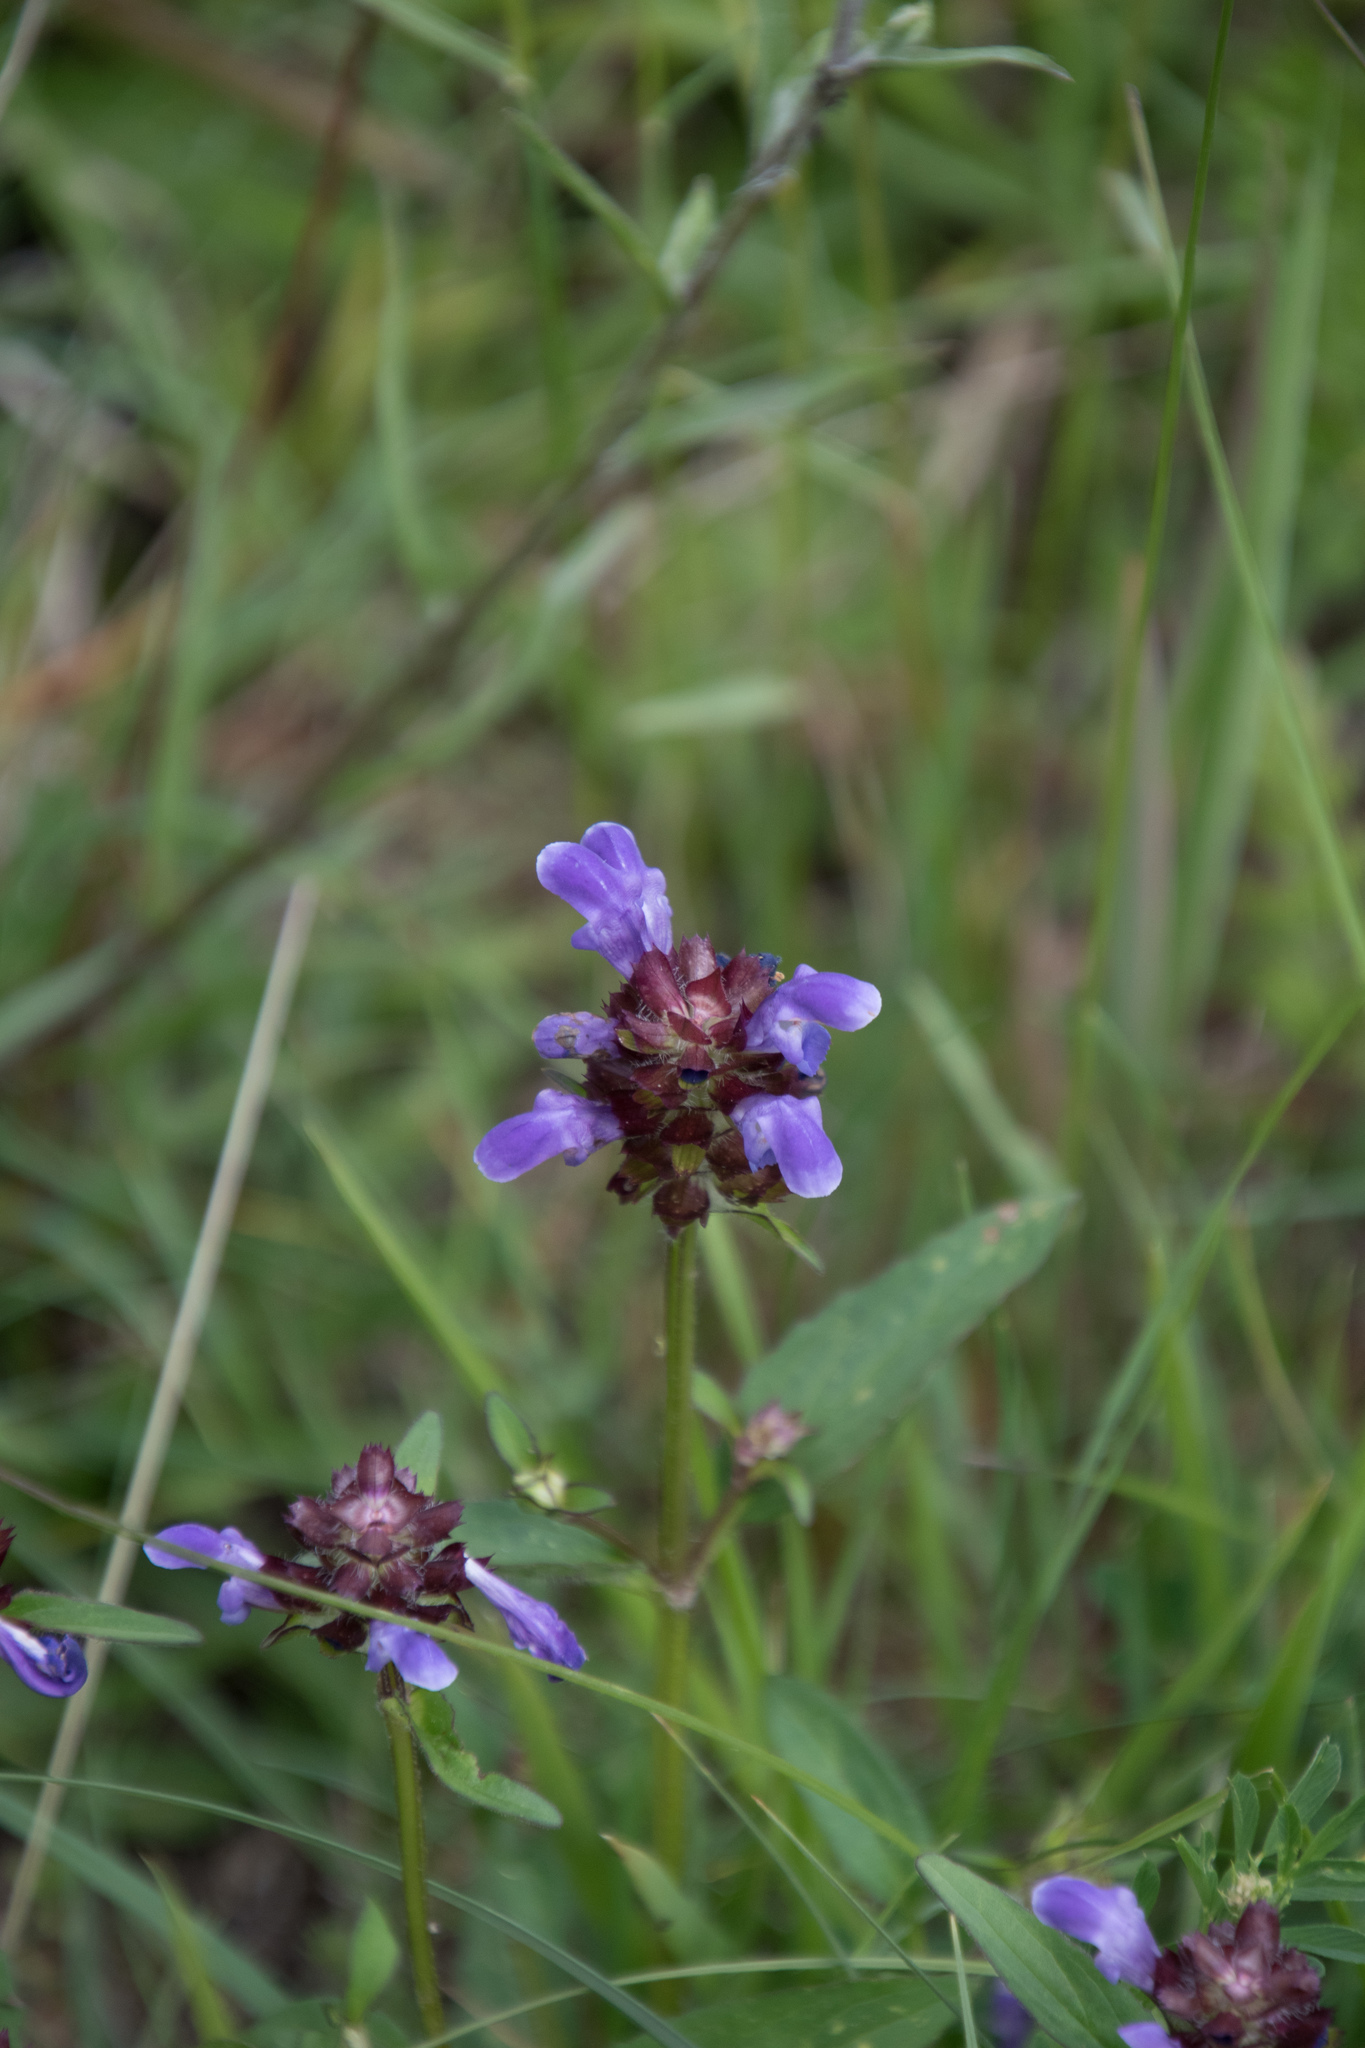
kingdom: Plantae
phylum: Tracheophyta
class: Magnoliopsida
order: Lamiales
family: Lamiaceae
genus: Prunella
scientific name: Prunella grandiflora
